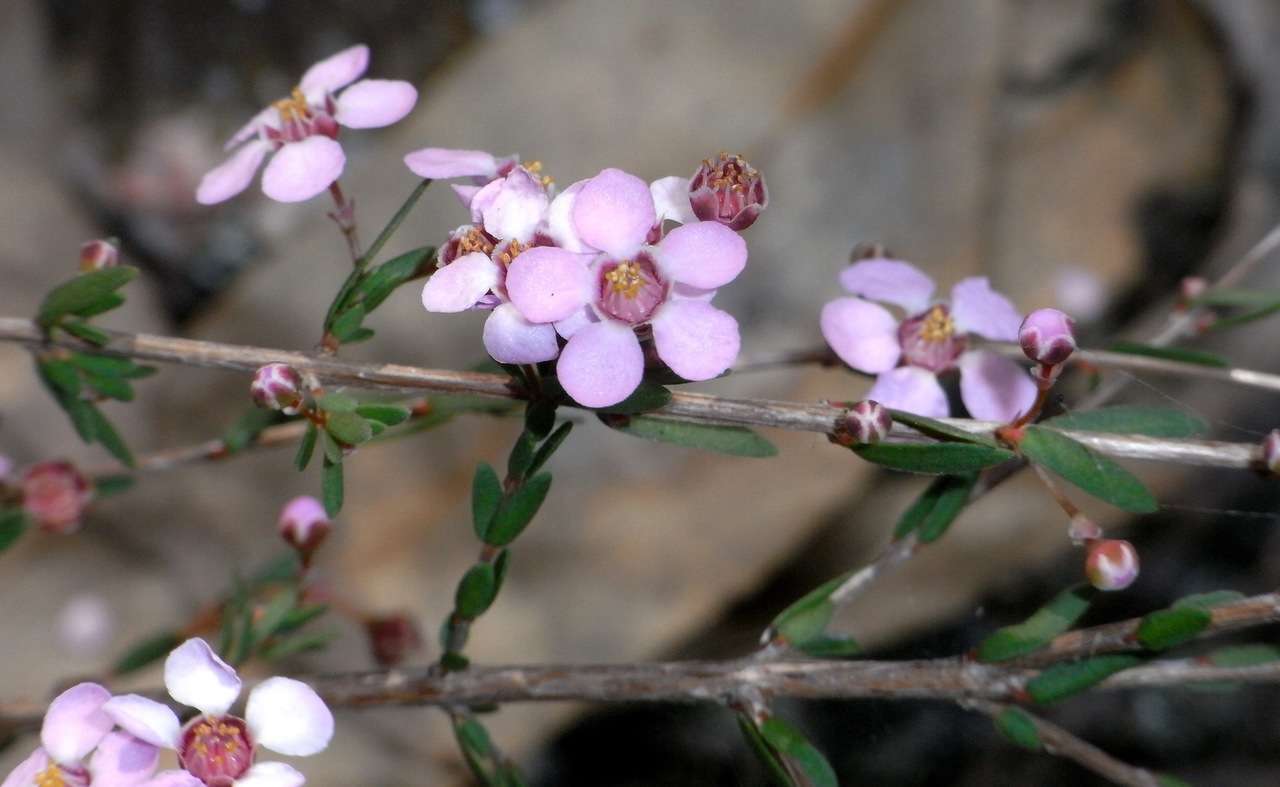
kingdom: Plantae
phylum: Tracheophyta
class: Magnoliopsida
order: Myrtales
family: Myrtaceae
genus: Euryomyrtus
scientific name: Euryomyrtus ramosissima
